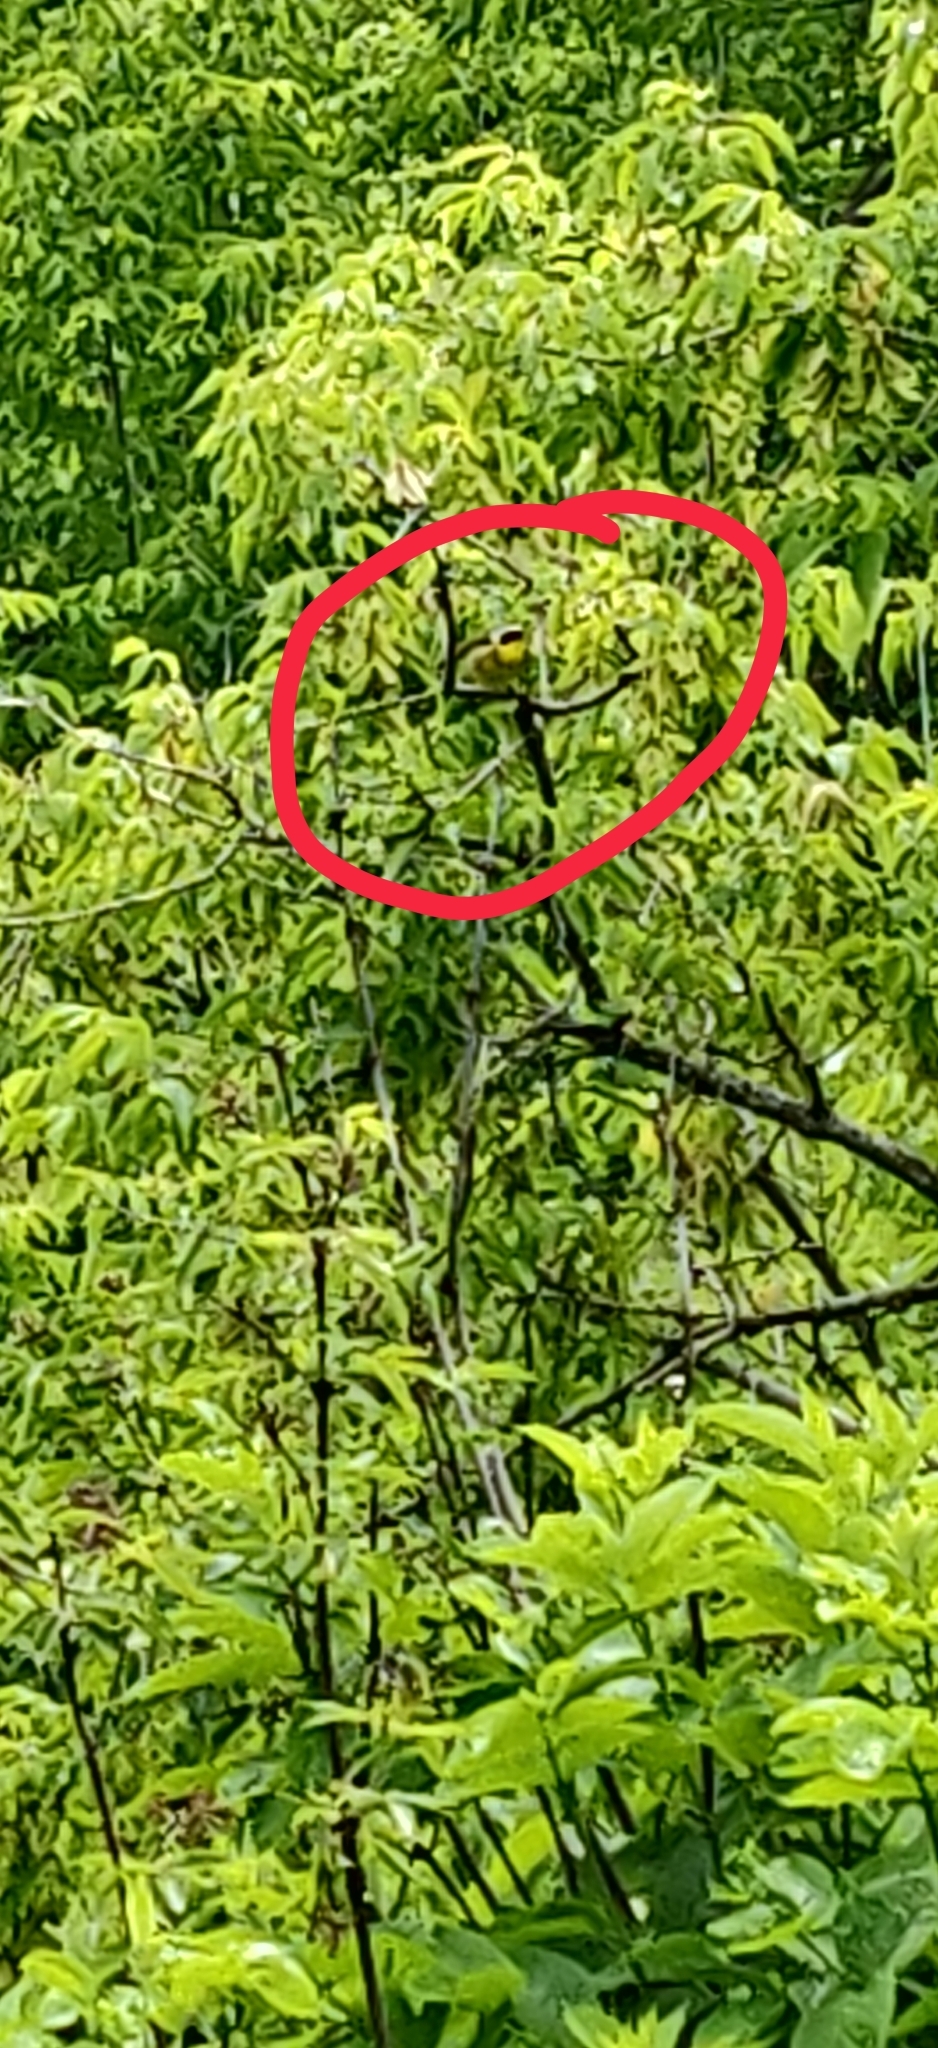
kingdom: Animalia
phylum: Chordata
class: Aves
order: Passeriformes
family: Parulidae
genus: Geothlypis
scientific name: Geothlypis trichas
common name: Common yellowthroat
